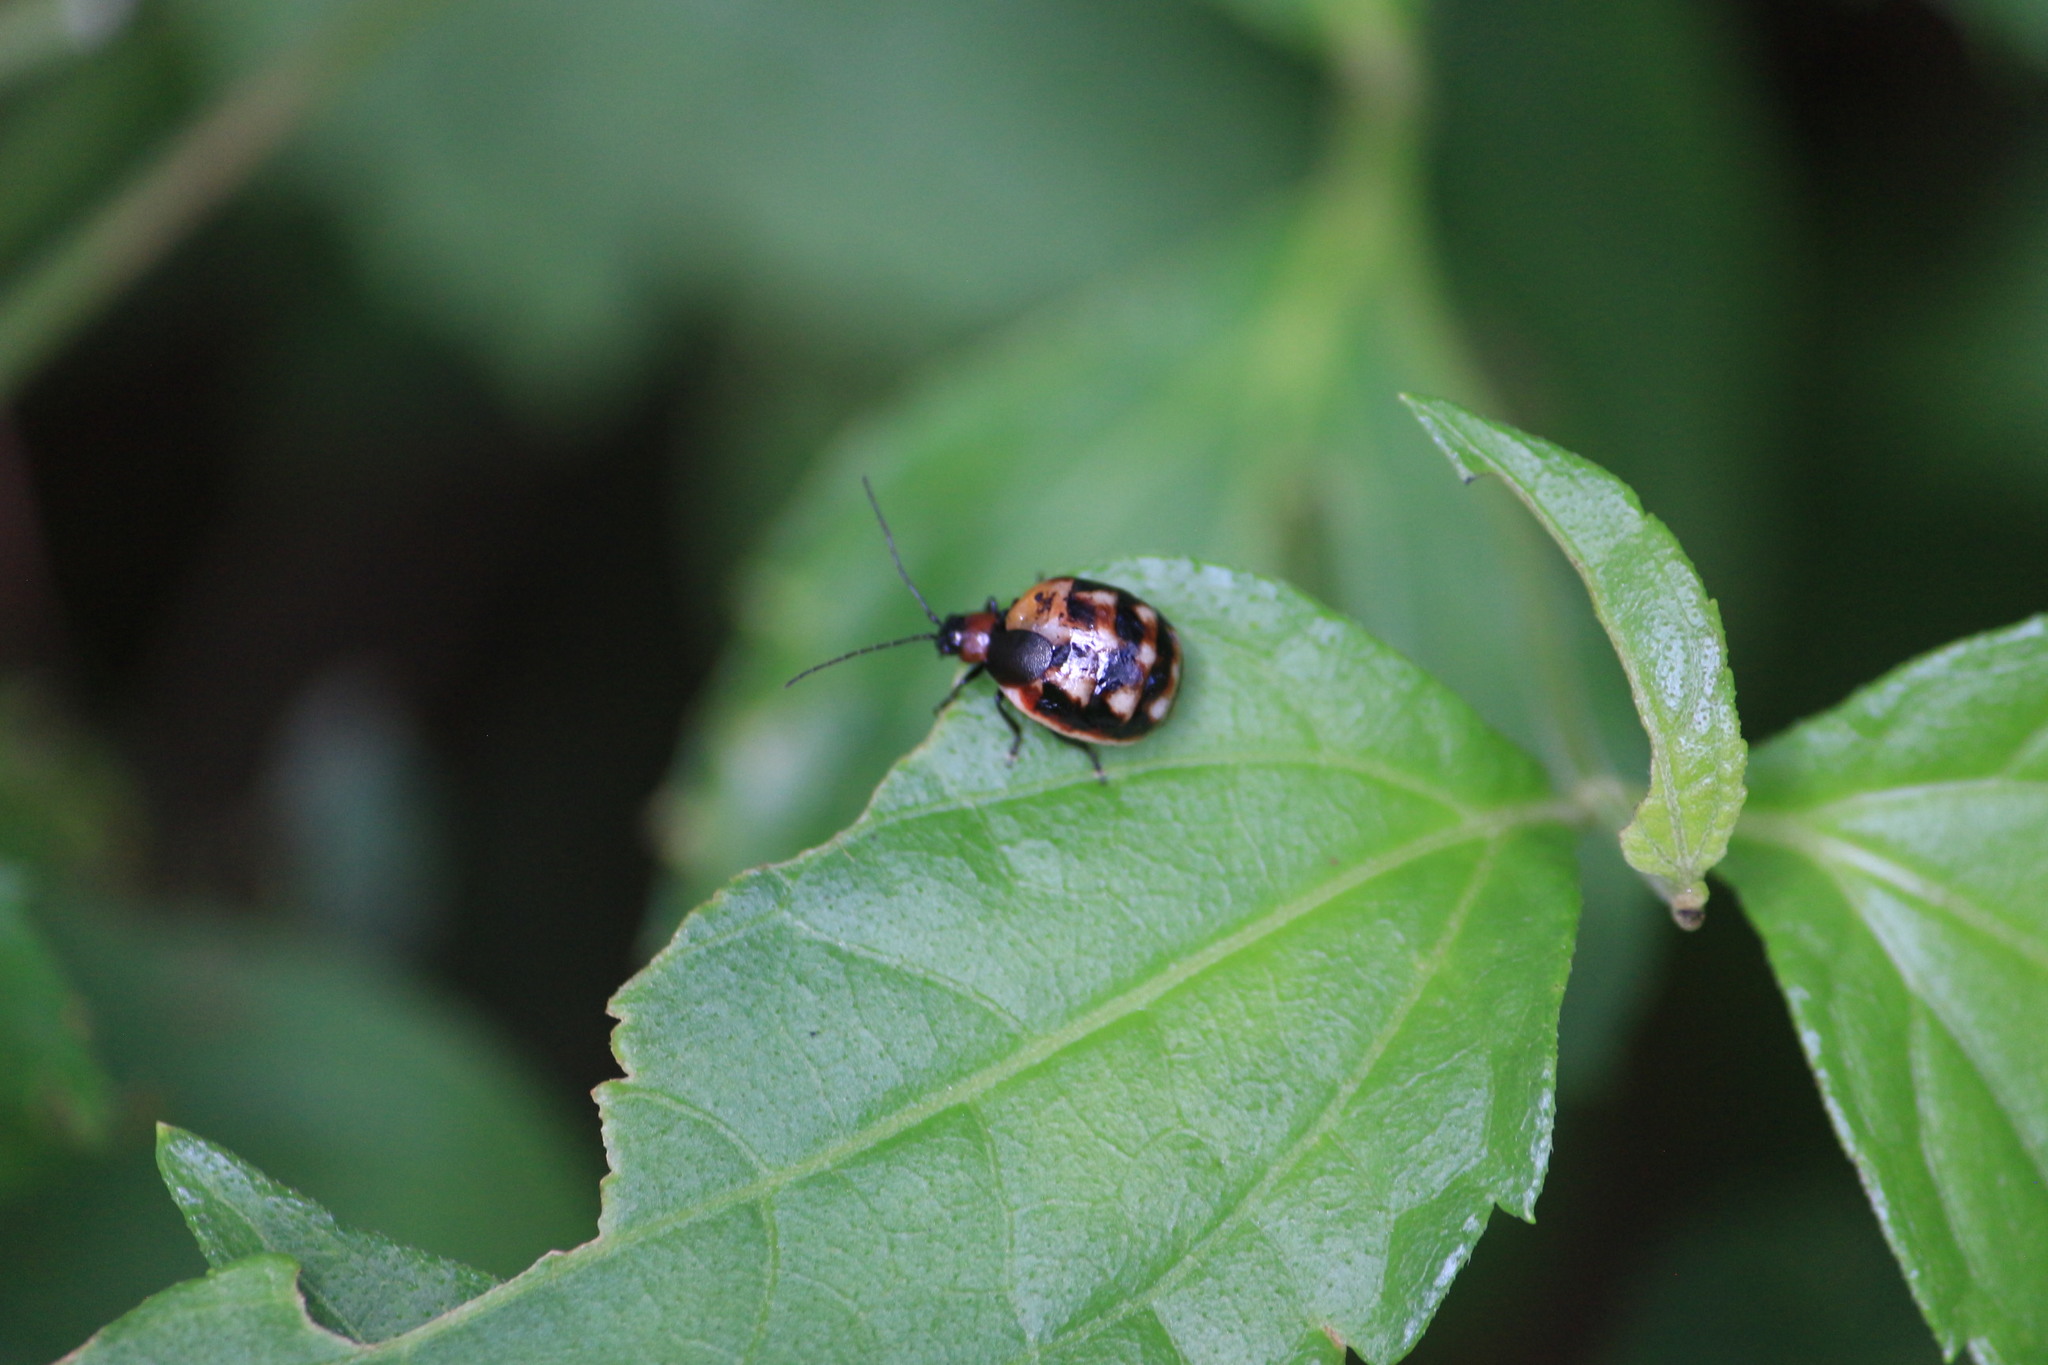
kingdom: Animalia
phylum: Arthropoda
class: Insecta
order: Coleoptera
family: Chrysomelidae
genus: Metacycla
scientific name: Metacycla
